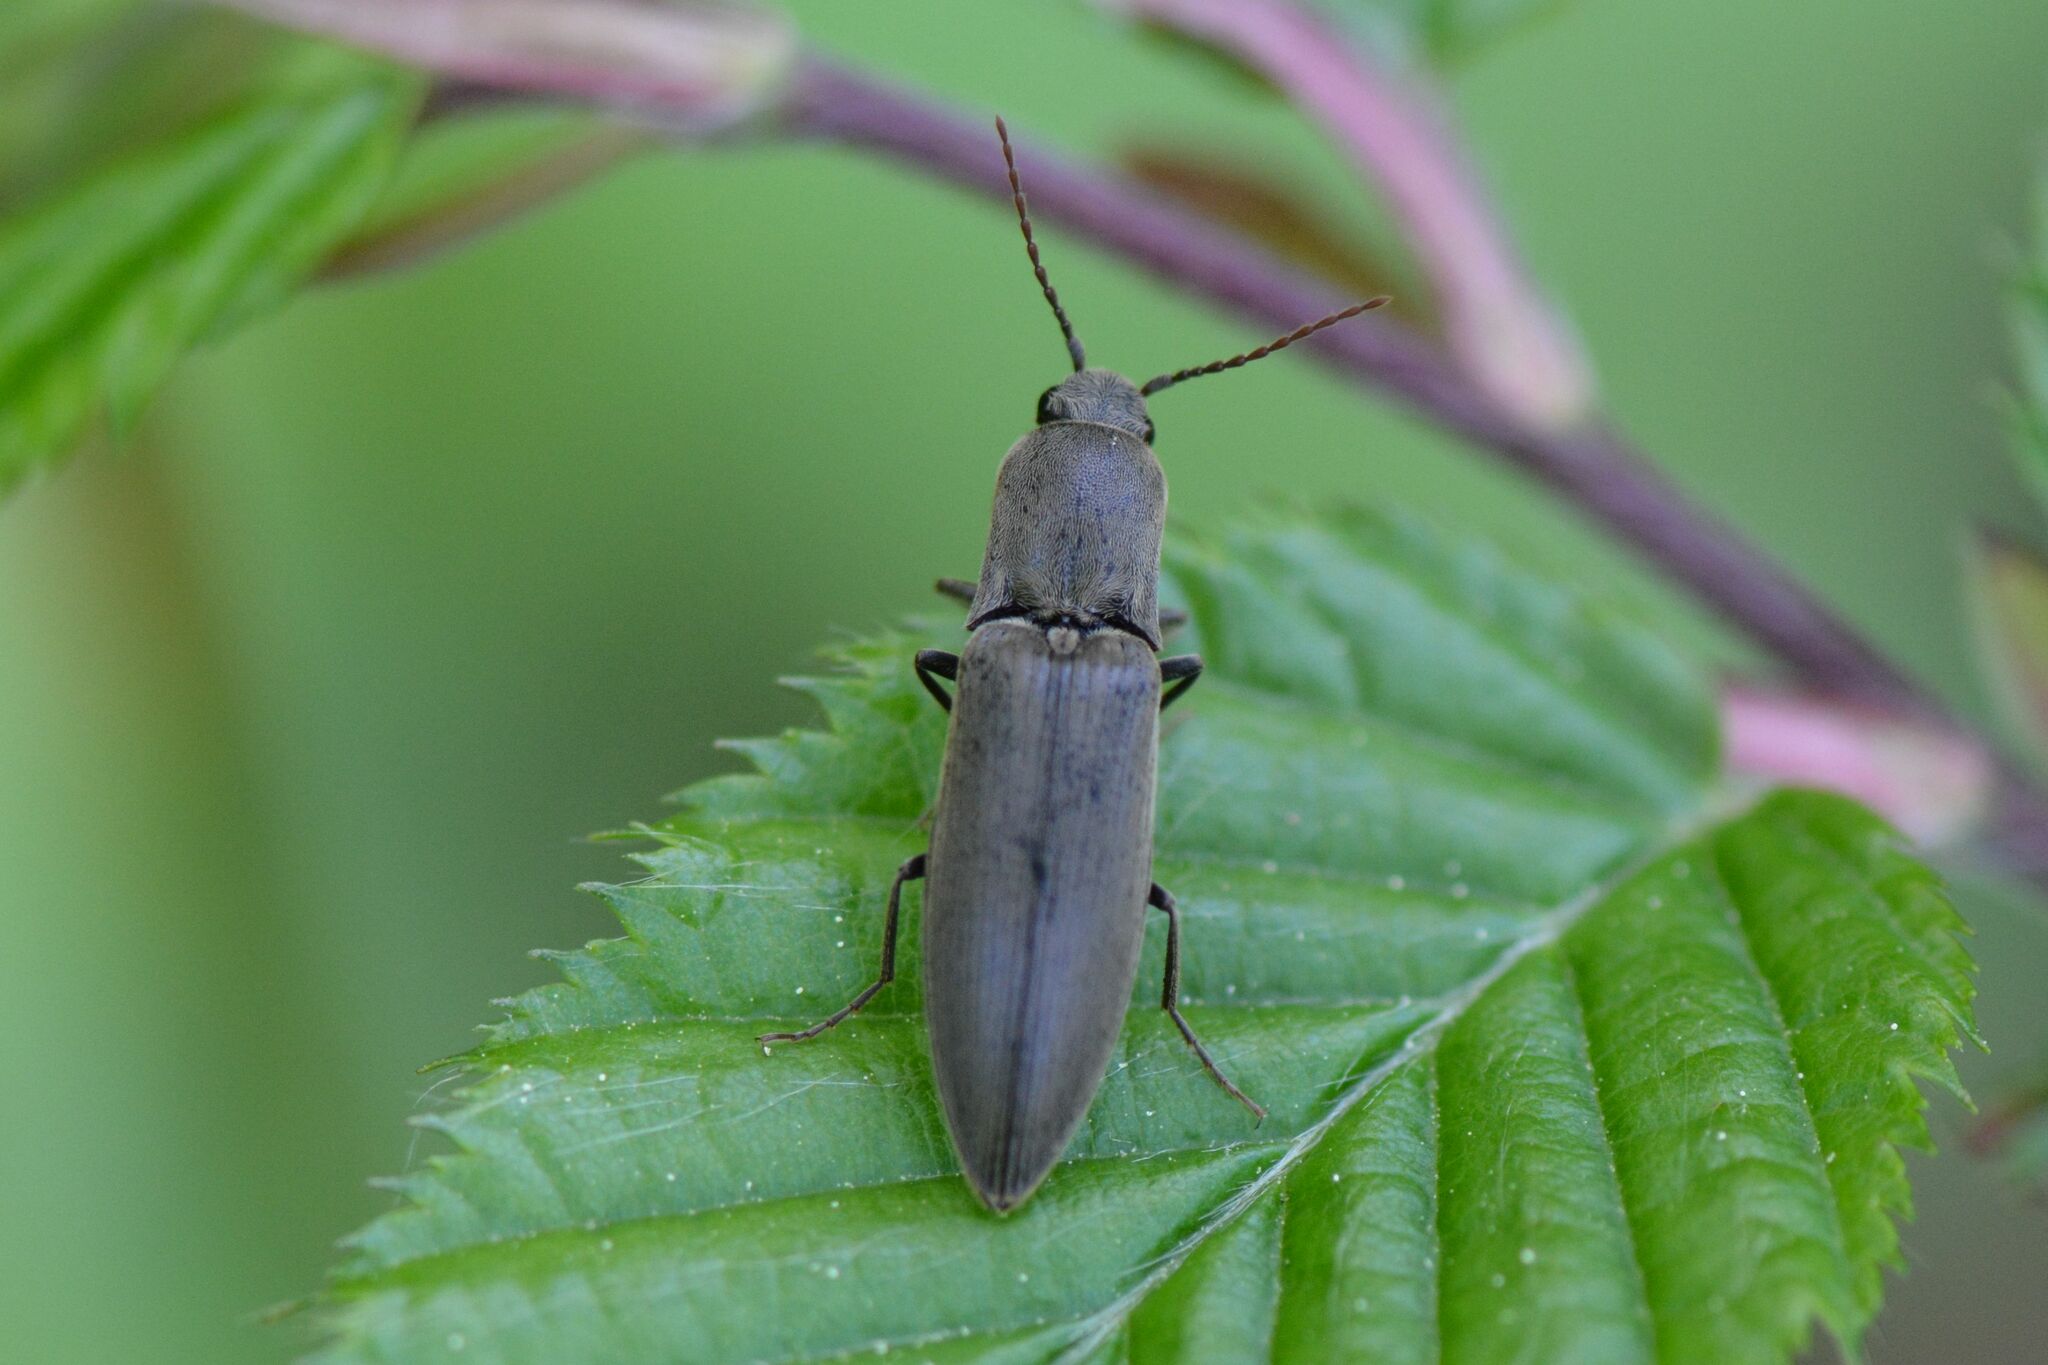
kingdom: Animalia
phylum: Arthropoda
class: Insecta
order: Coleoptera
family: Elateridae
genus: Agriotes
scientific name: Agriotes pilosellus
